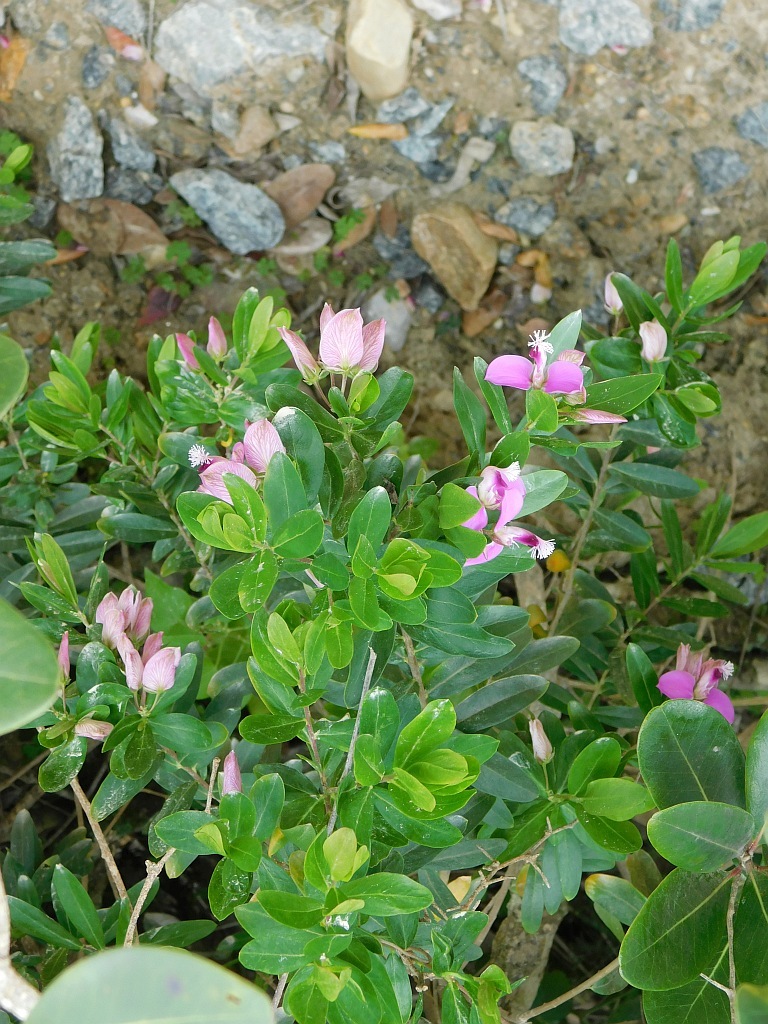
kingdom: Plantae
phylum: Tracheophyta
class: Magnoliopsida
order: Fabales
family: Polygalaceae
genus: Polygala
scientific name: Polygala myrtifolia
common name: Myrtle-leaf milkwort
